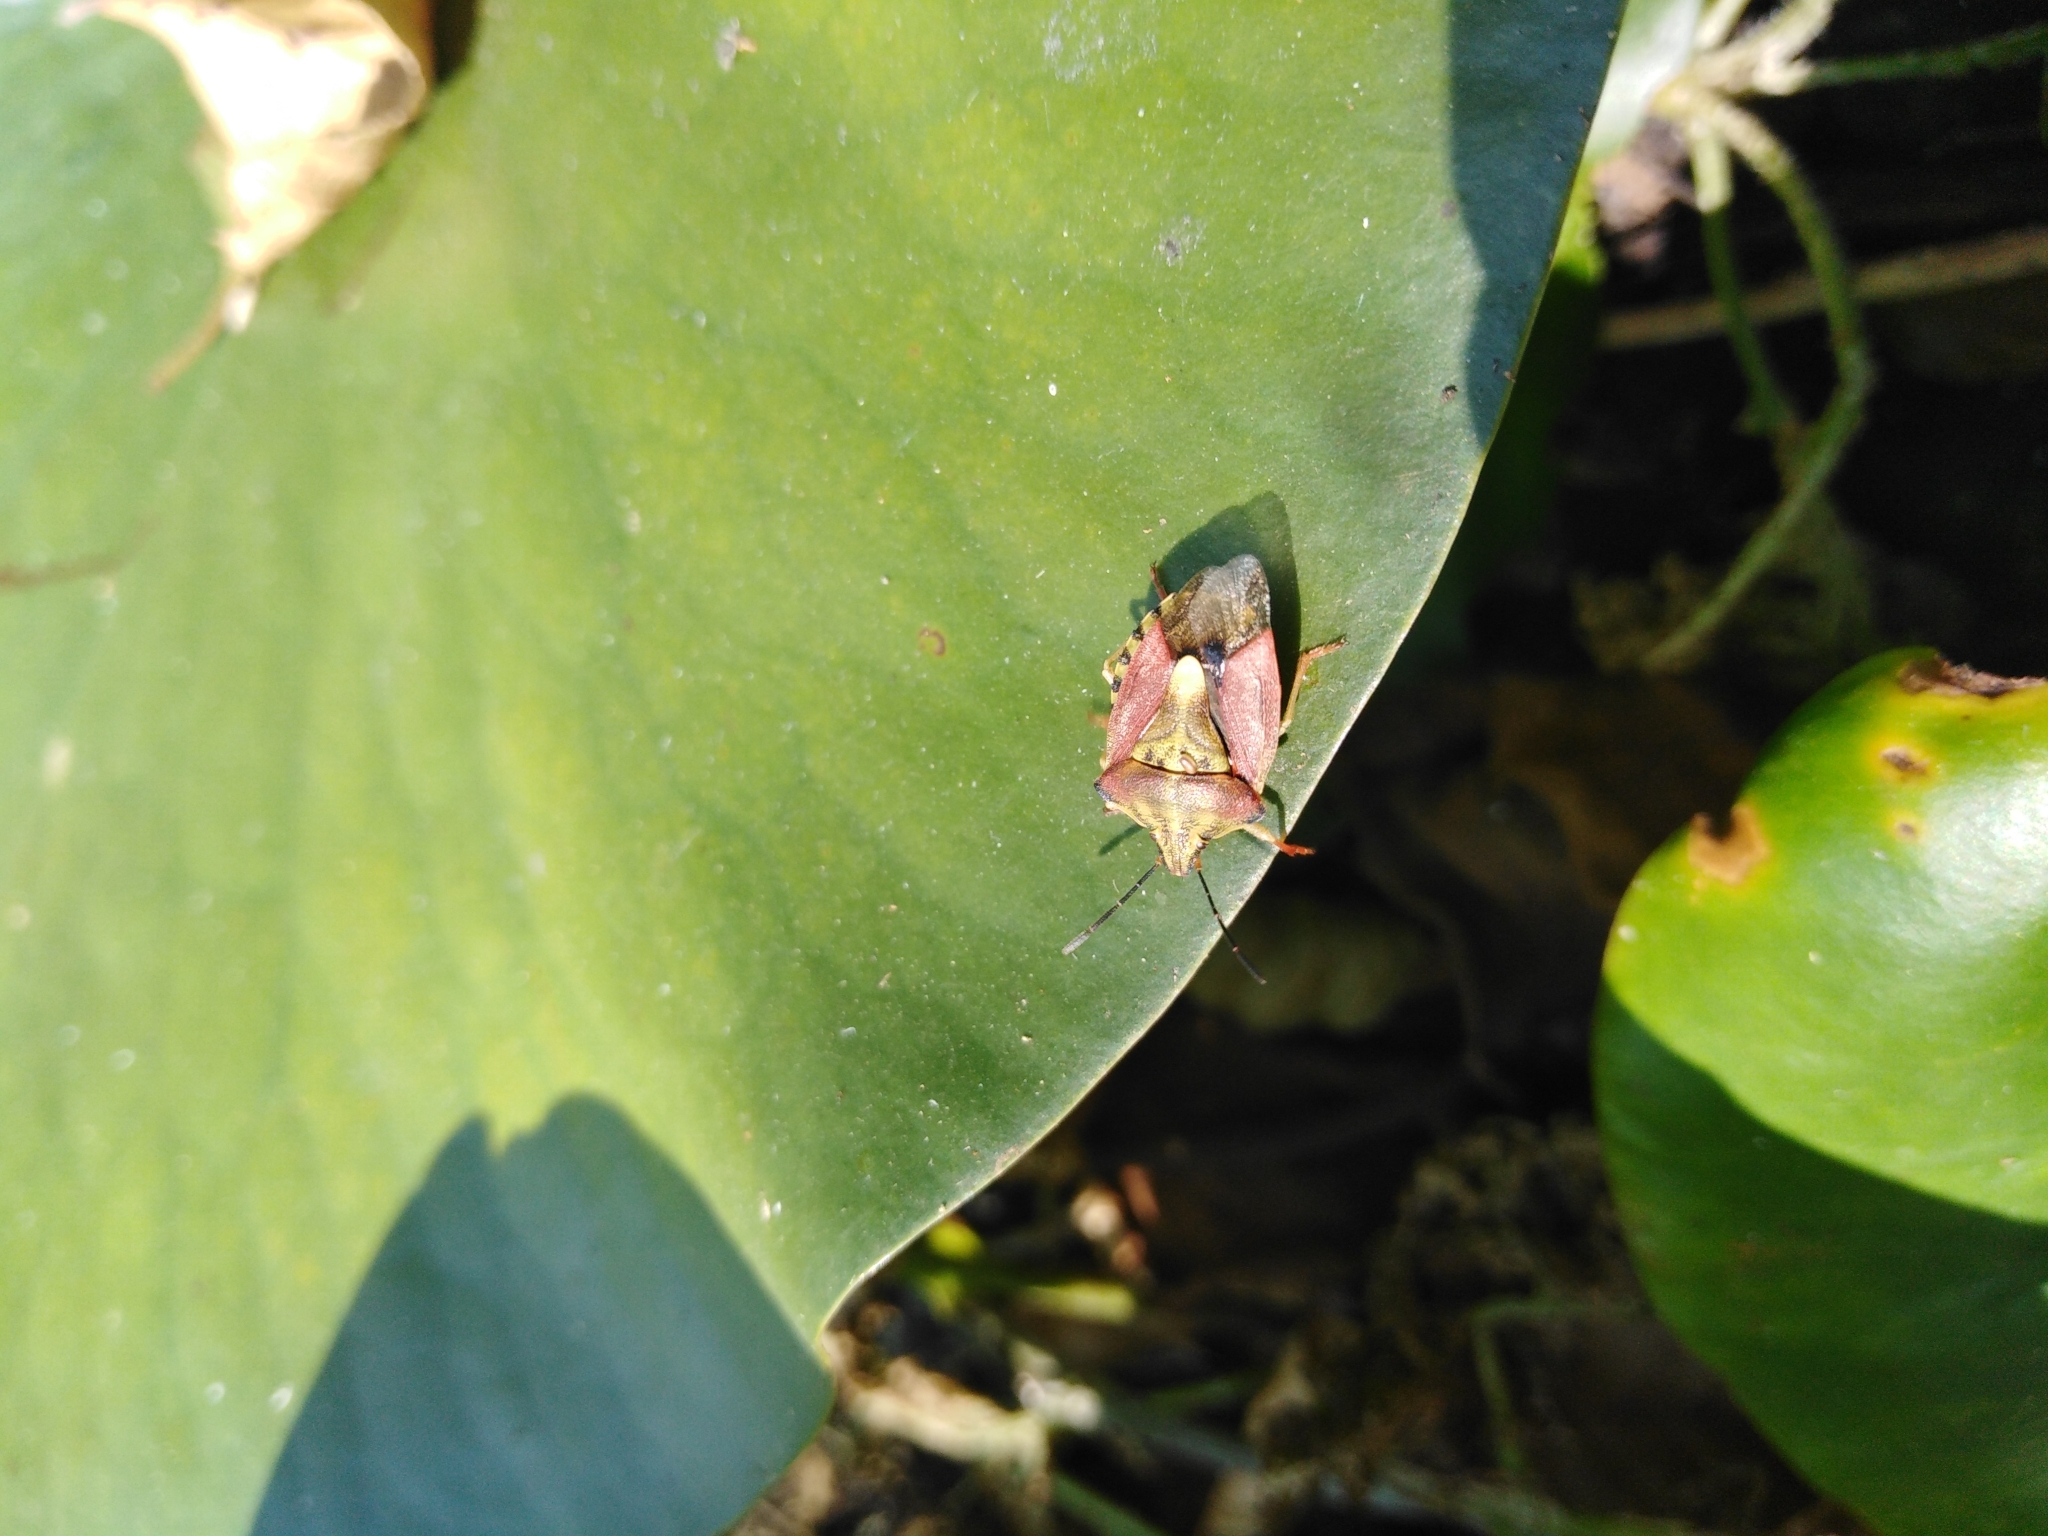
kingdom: Animalia
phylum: Arthropoda
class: Insecta
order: Hemiptera
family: Pentatomidae
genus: Carpocoris
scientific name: Carpocoris purpureipennis
